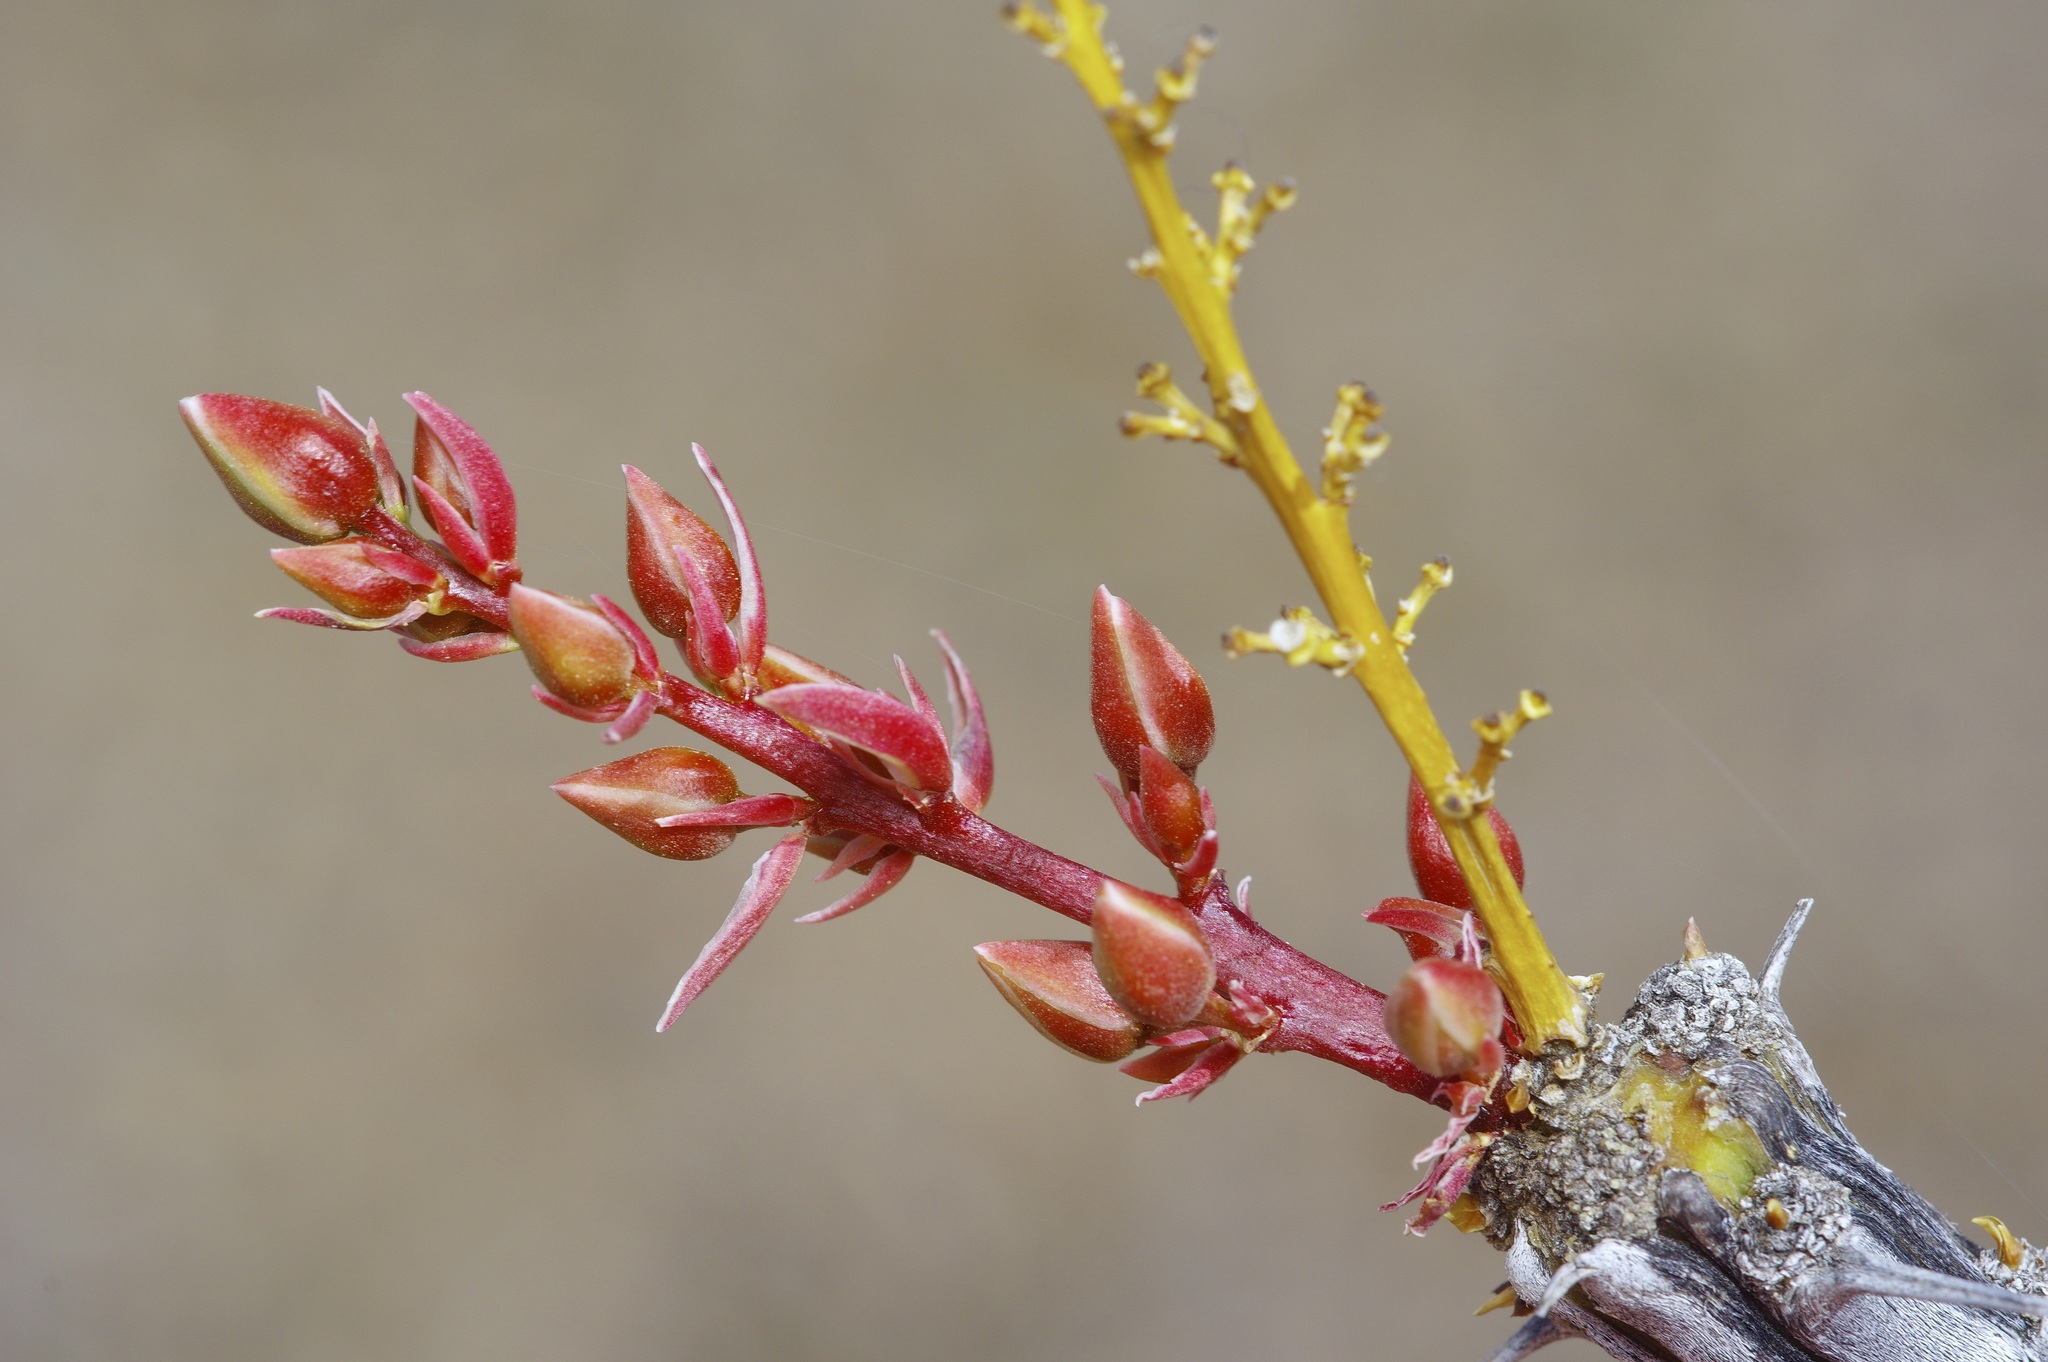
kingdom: Plantae
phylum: Tracheophyta
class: Magnoliopsida
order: Ericales
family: Fouquieriaceae
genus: Fouquieria
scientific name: Fouquieria splendens
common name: Vine-cactus
